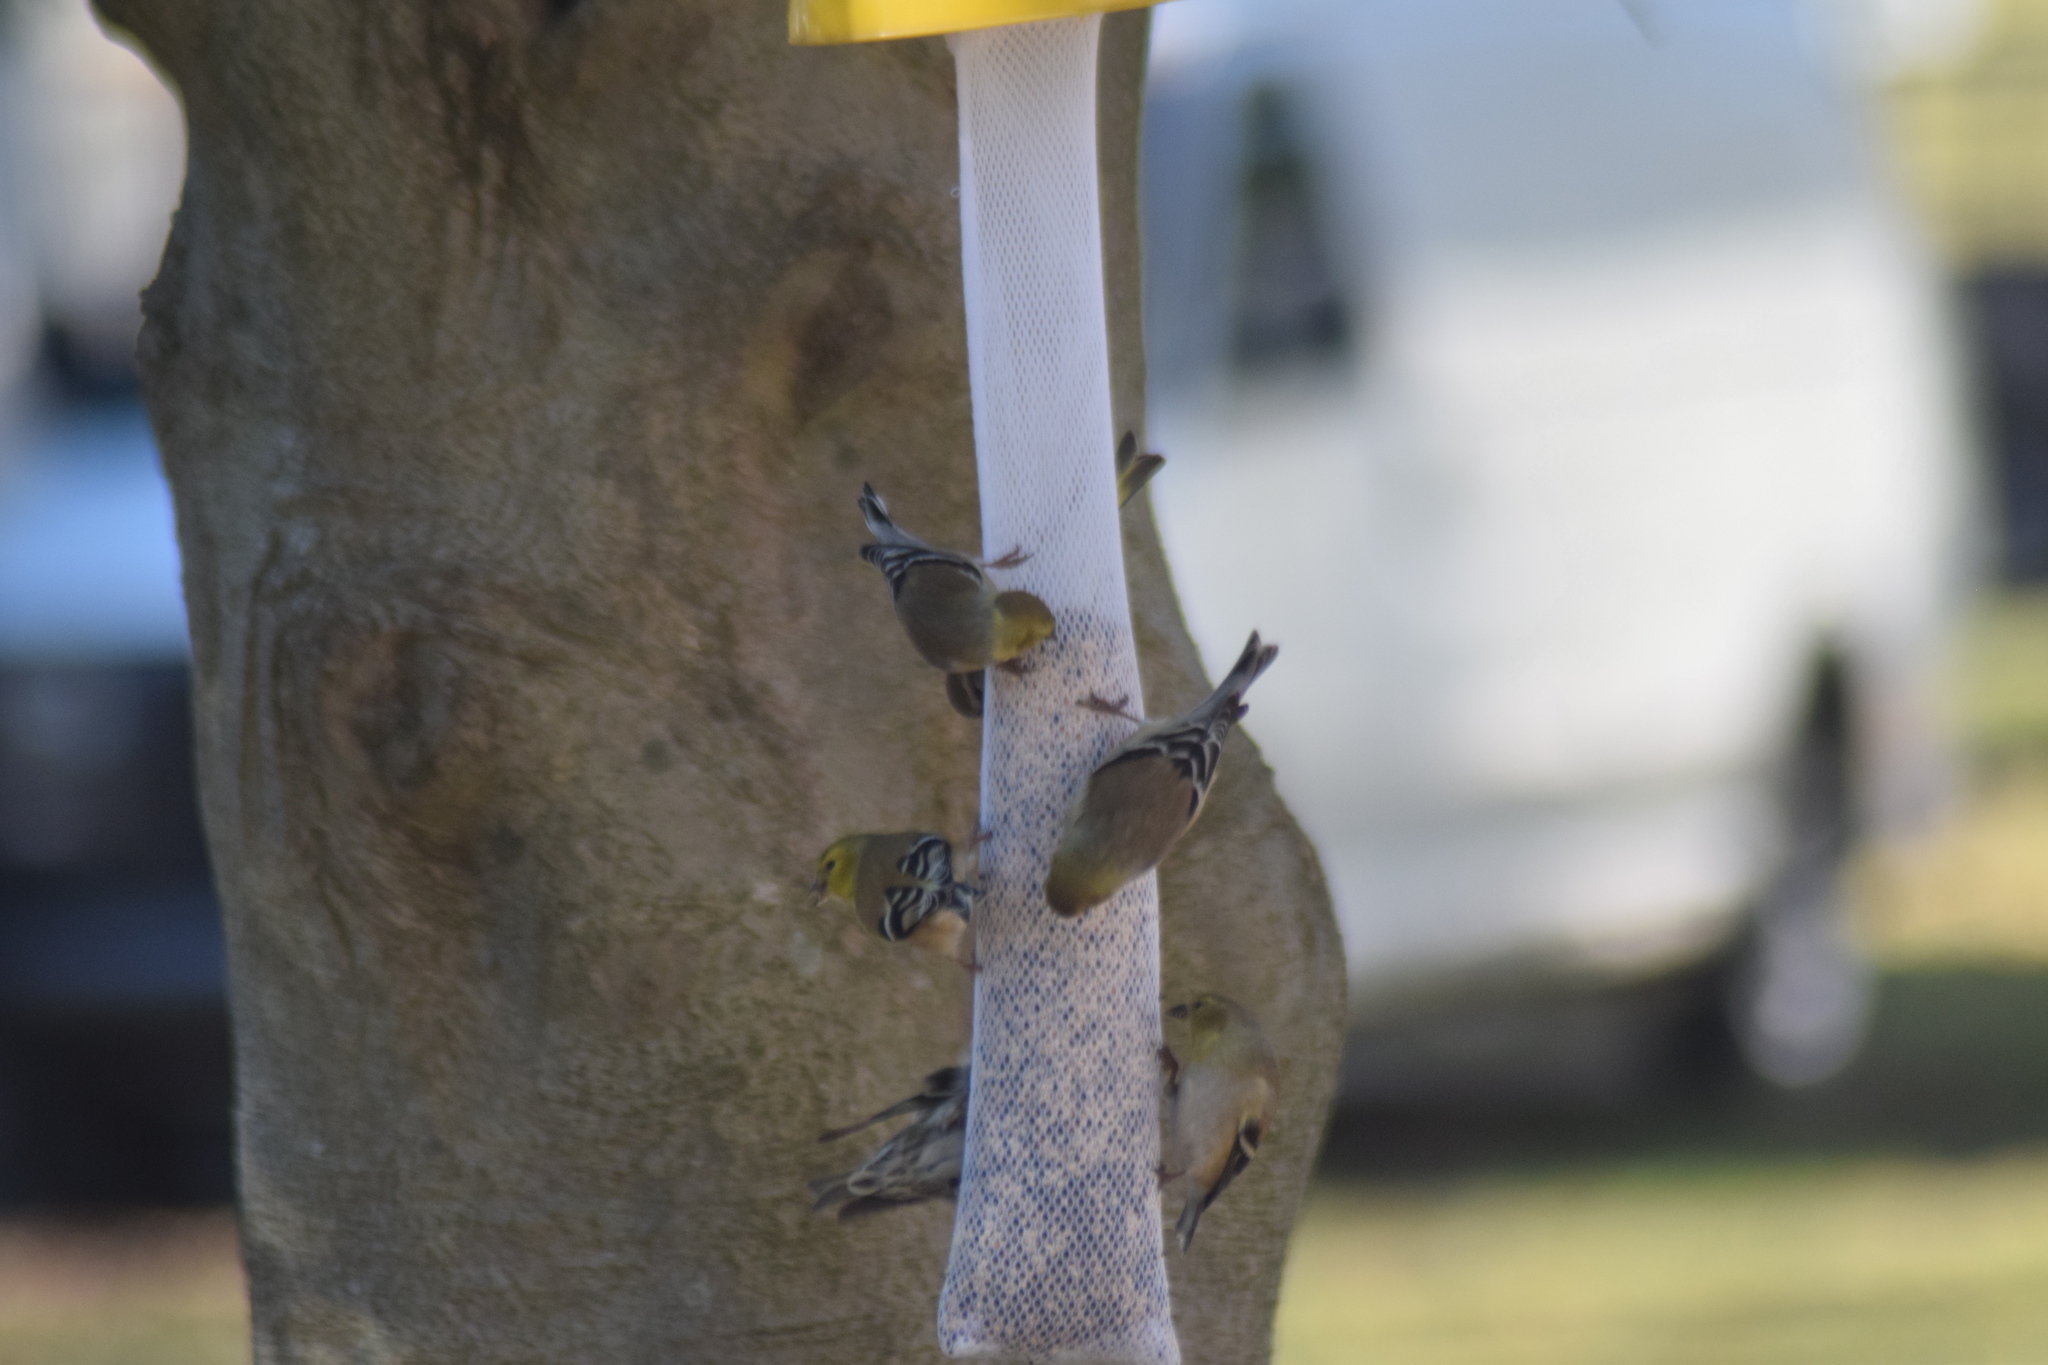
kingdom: Animalia
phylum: Chordata
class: Aves
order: Passeriformes
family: Fringillidae
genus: Spinus
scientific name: Spinus tristis
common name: American goldfinch
